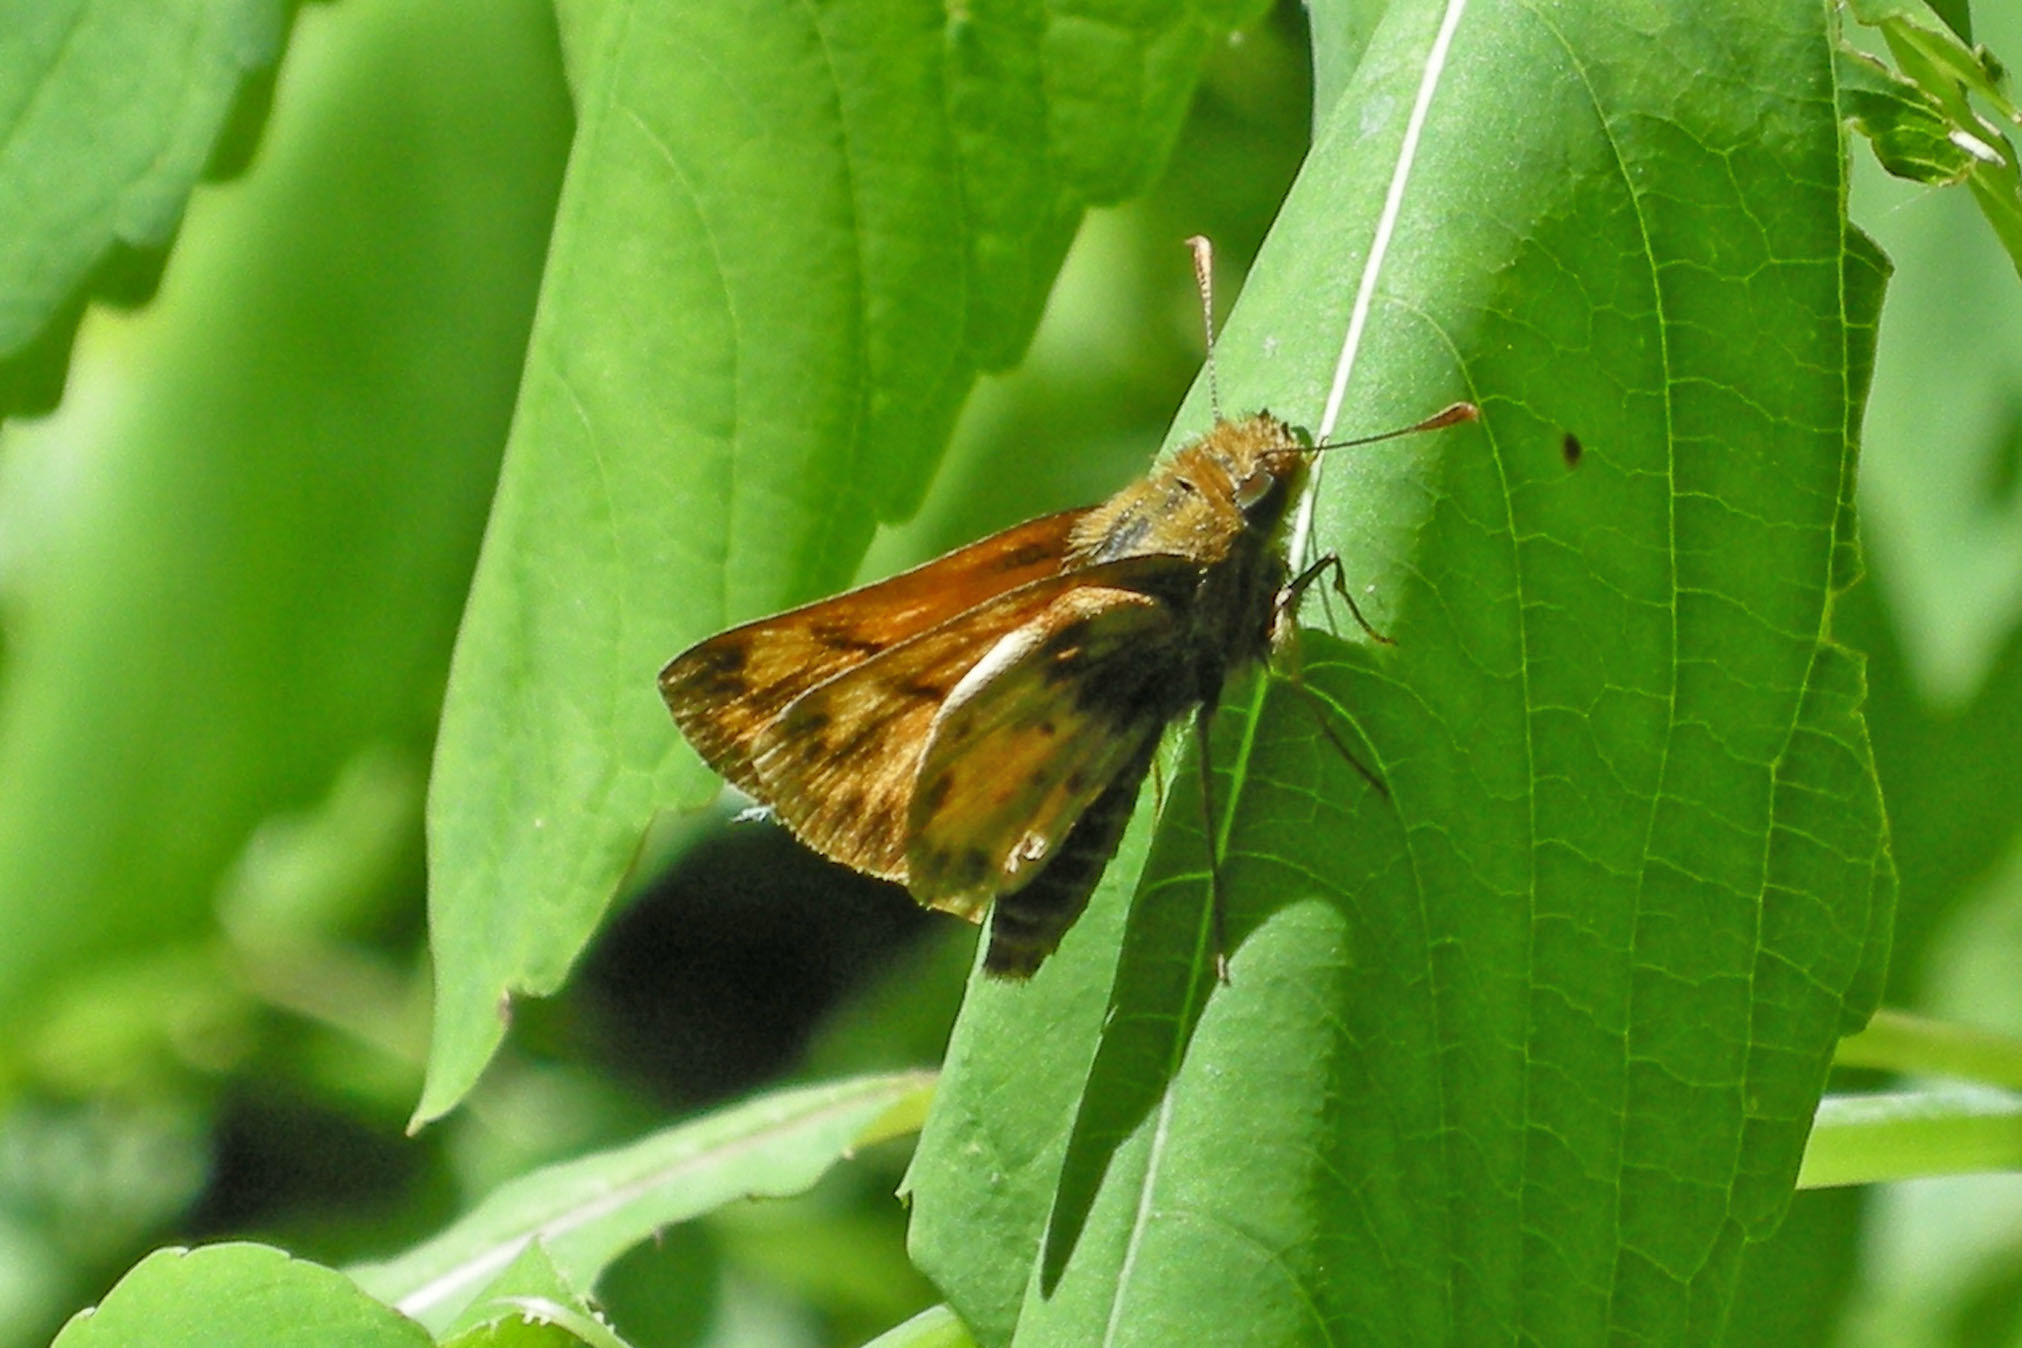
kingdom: Animalia
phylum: Arthropoda
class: Insecta
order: Lepidoptera
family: Hesperiidae
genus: Lon
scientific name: Lon zabulon
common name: Zabulon skipper
